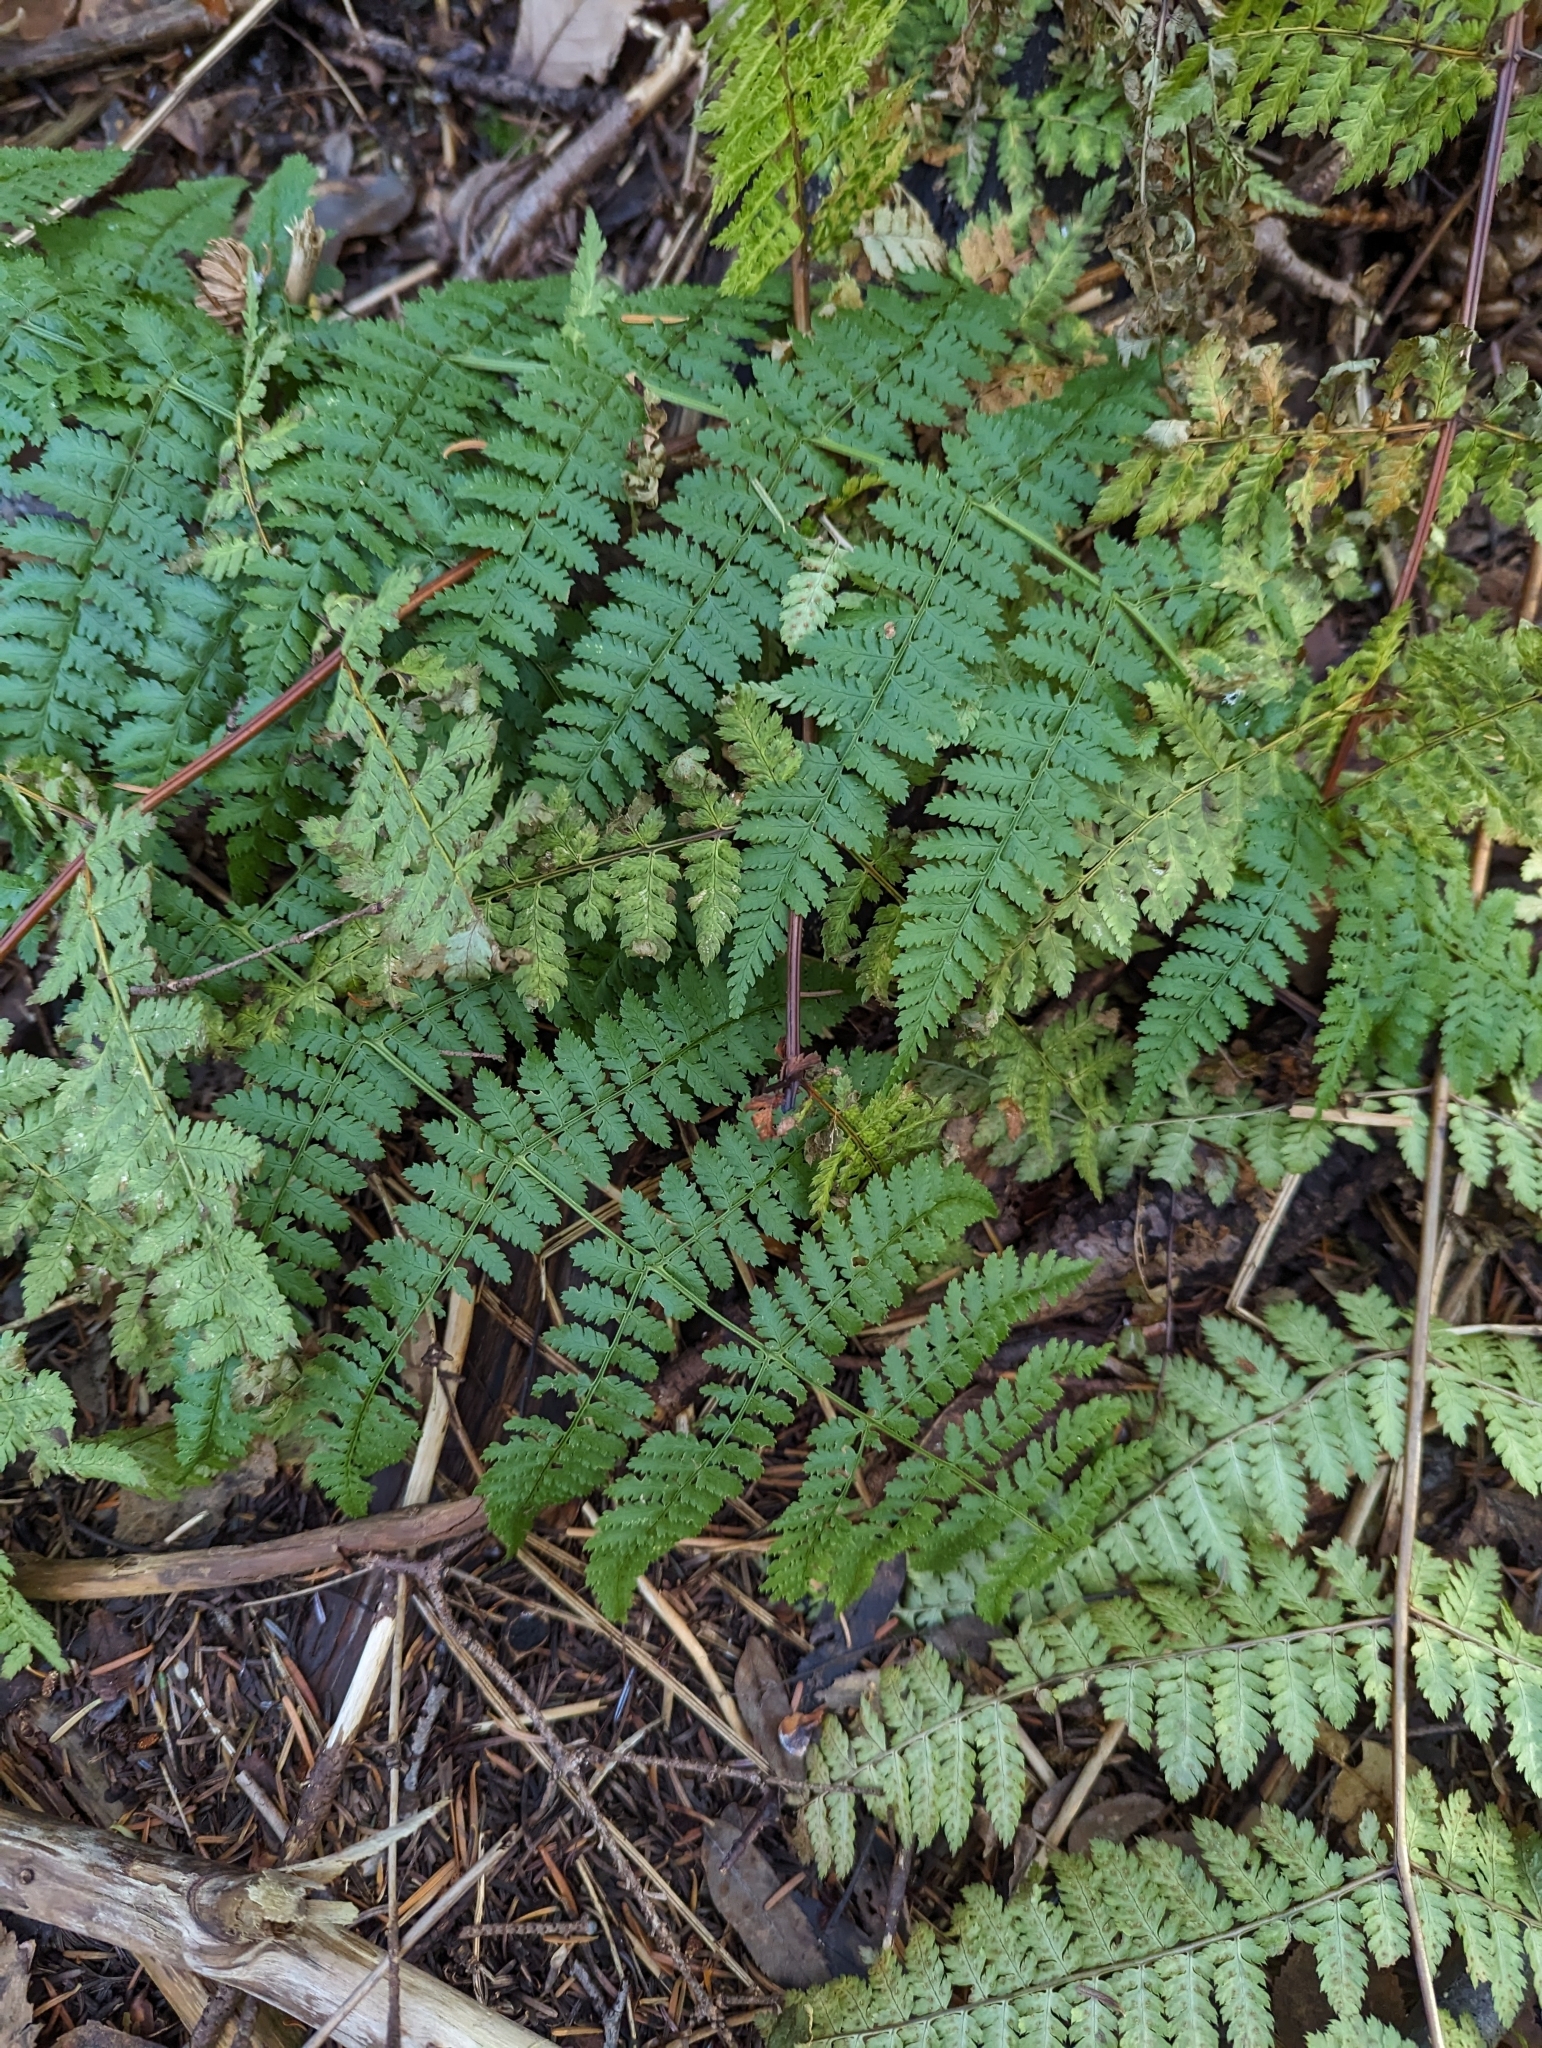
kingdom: Plantae
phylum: Tracheophyta
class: Polypodiopsida
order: Polypodiales
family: Dryopteridaceae
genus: Dryopteris
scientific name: Dryopteris intermedia
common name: Evergreen wood fern
